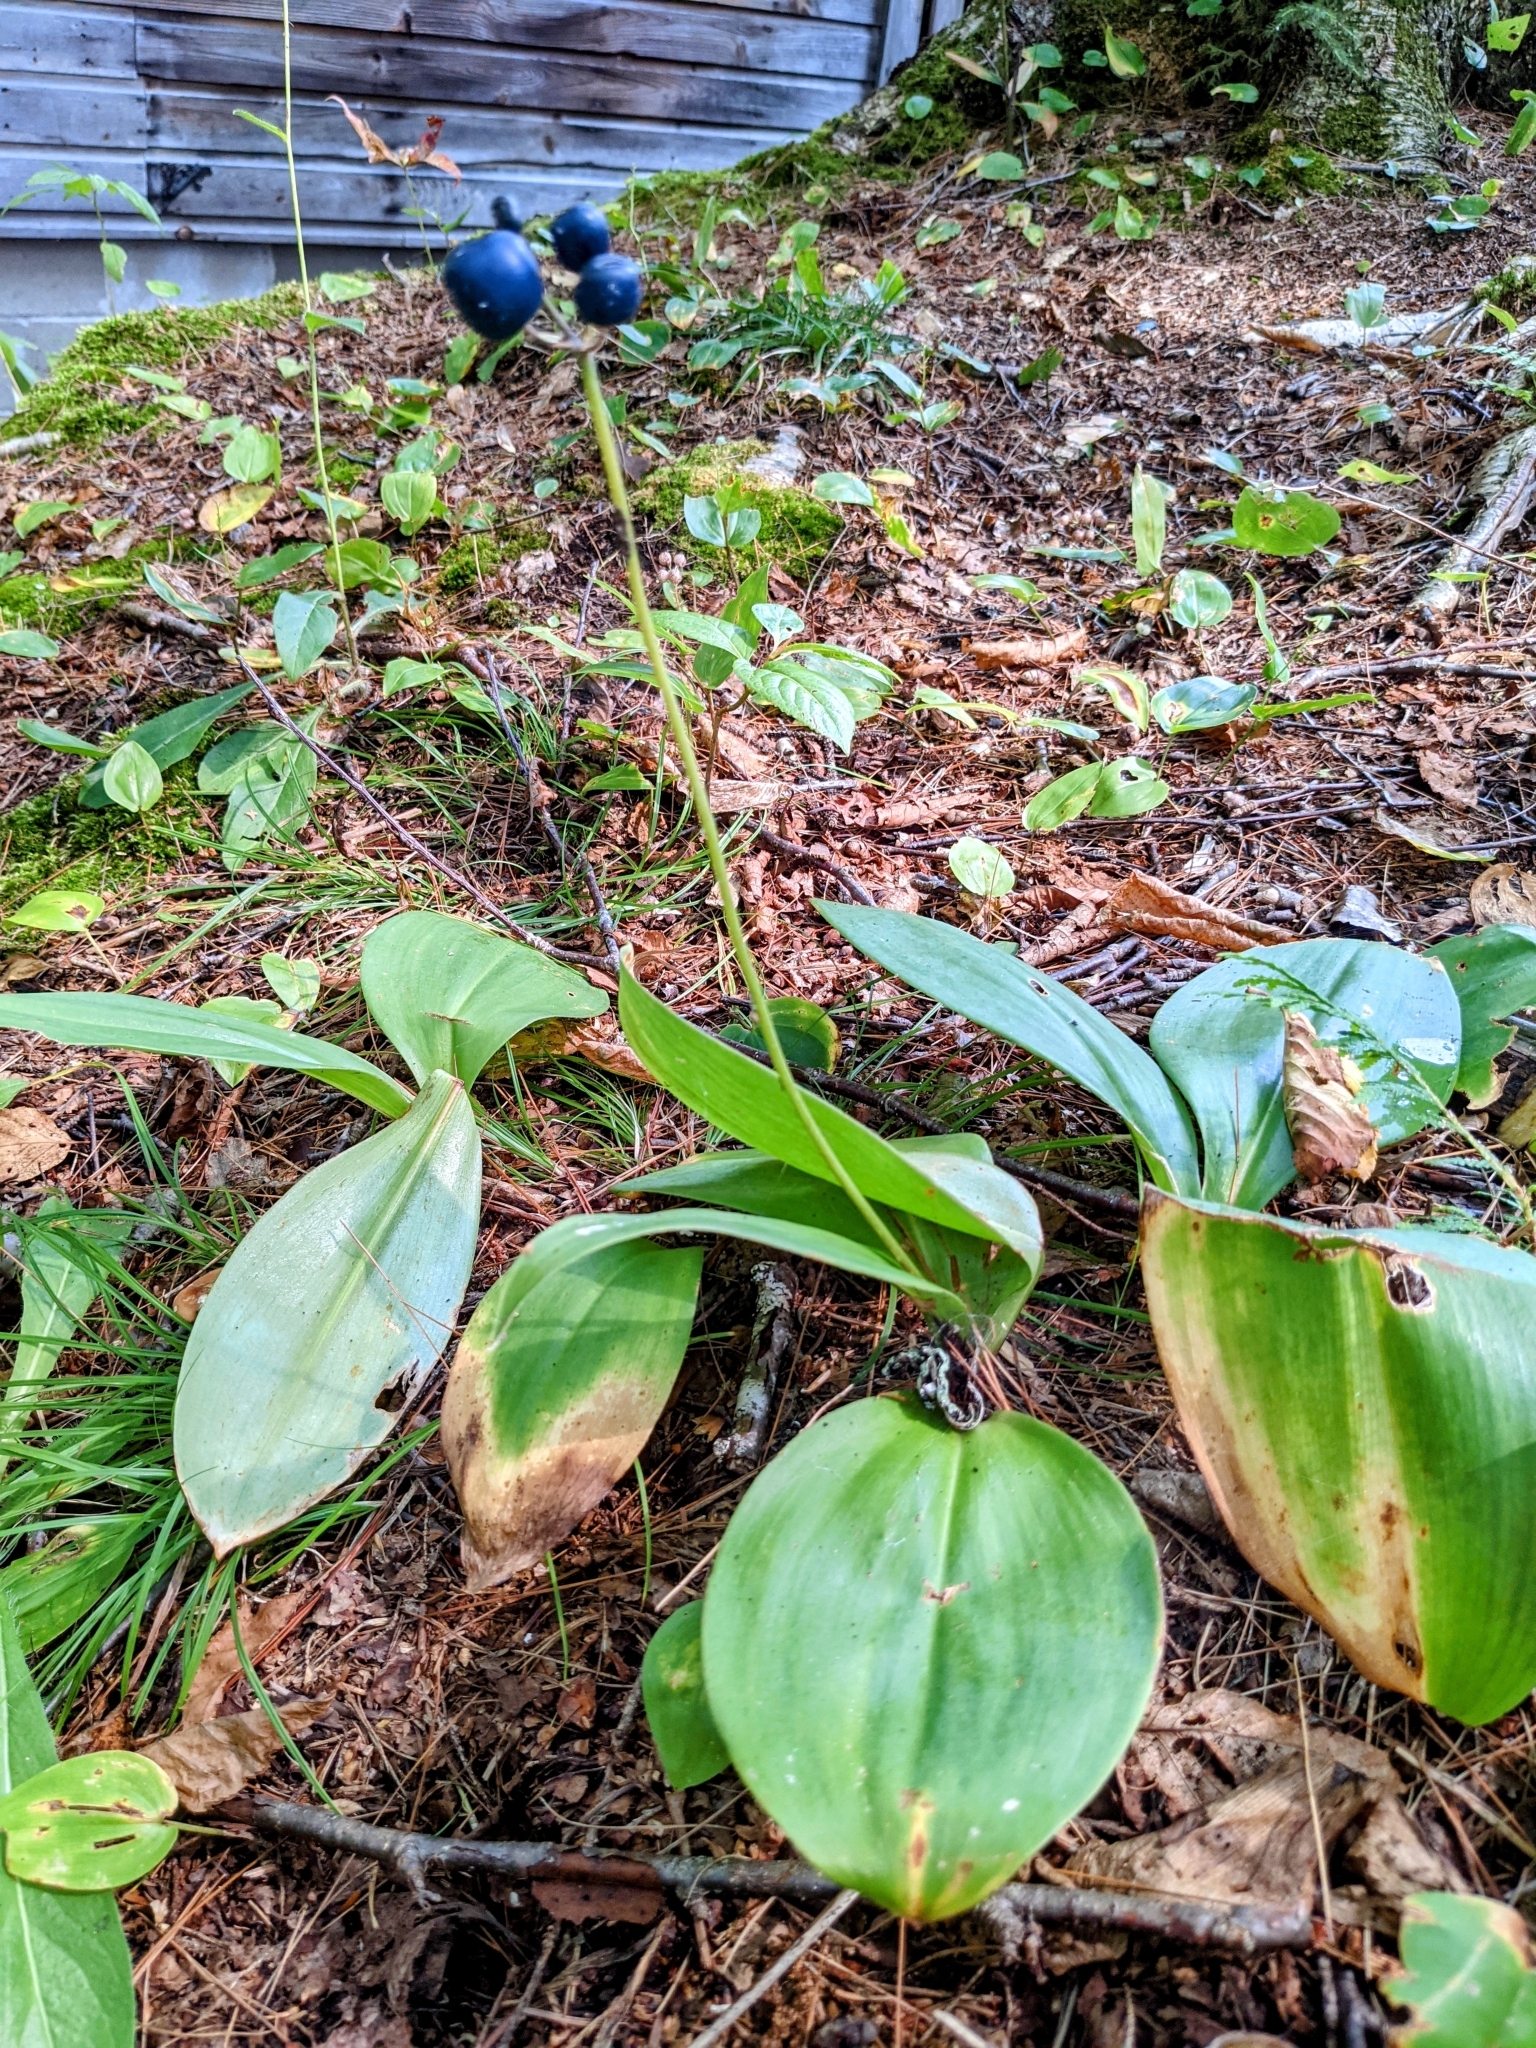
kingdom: Plantae
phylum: Tracheophyta
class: Liliopsida
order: Liliales
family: Liliaceae
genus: Clintonia
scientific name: Clintonia borealis
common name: Yellow clintonia
